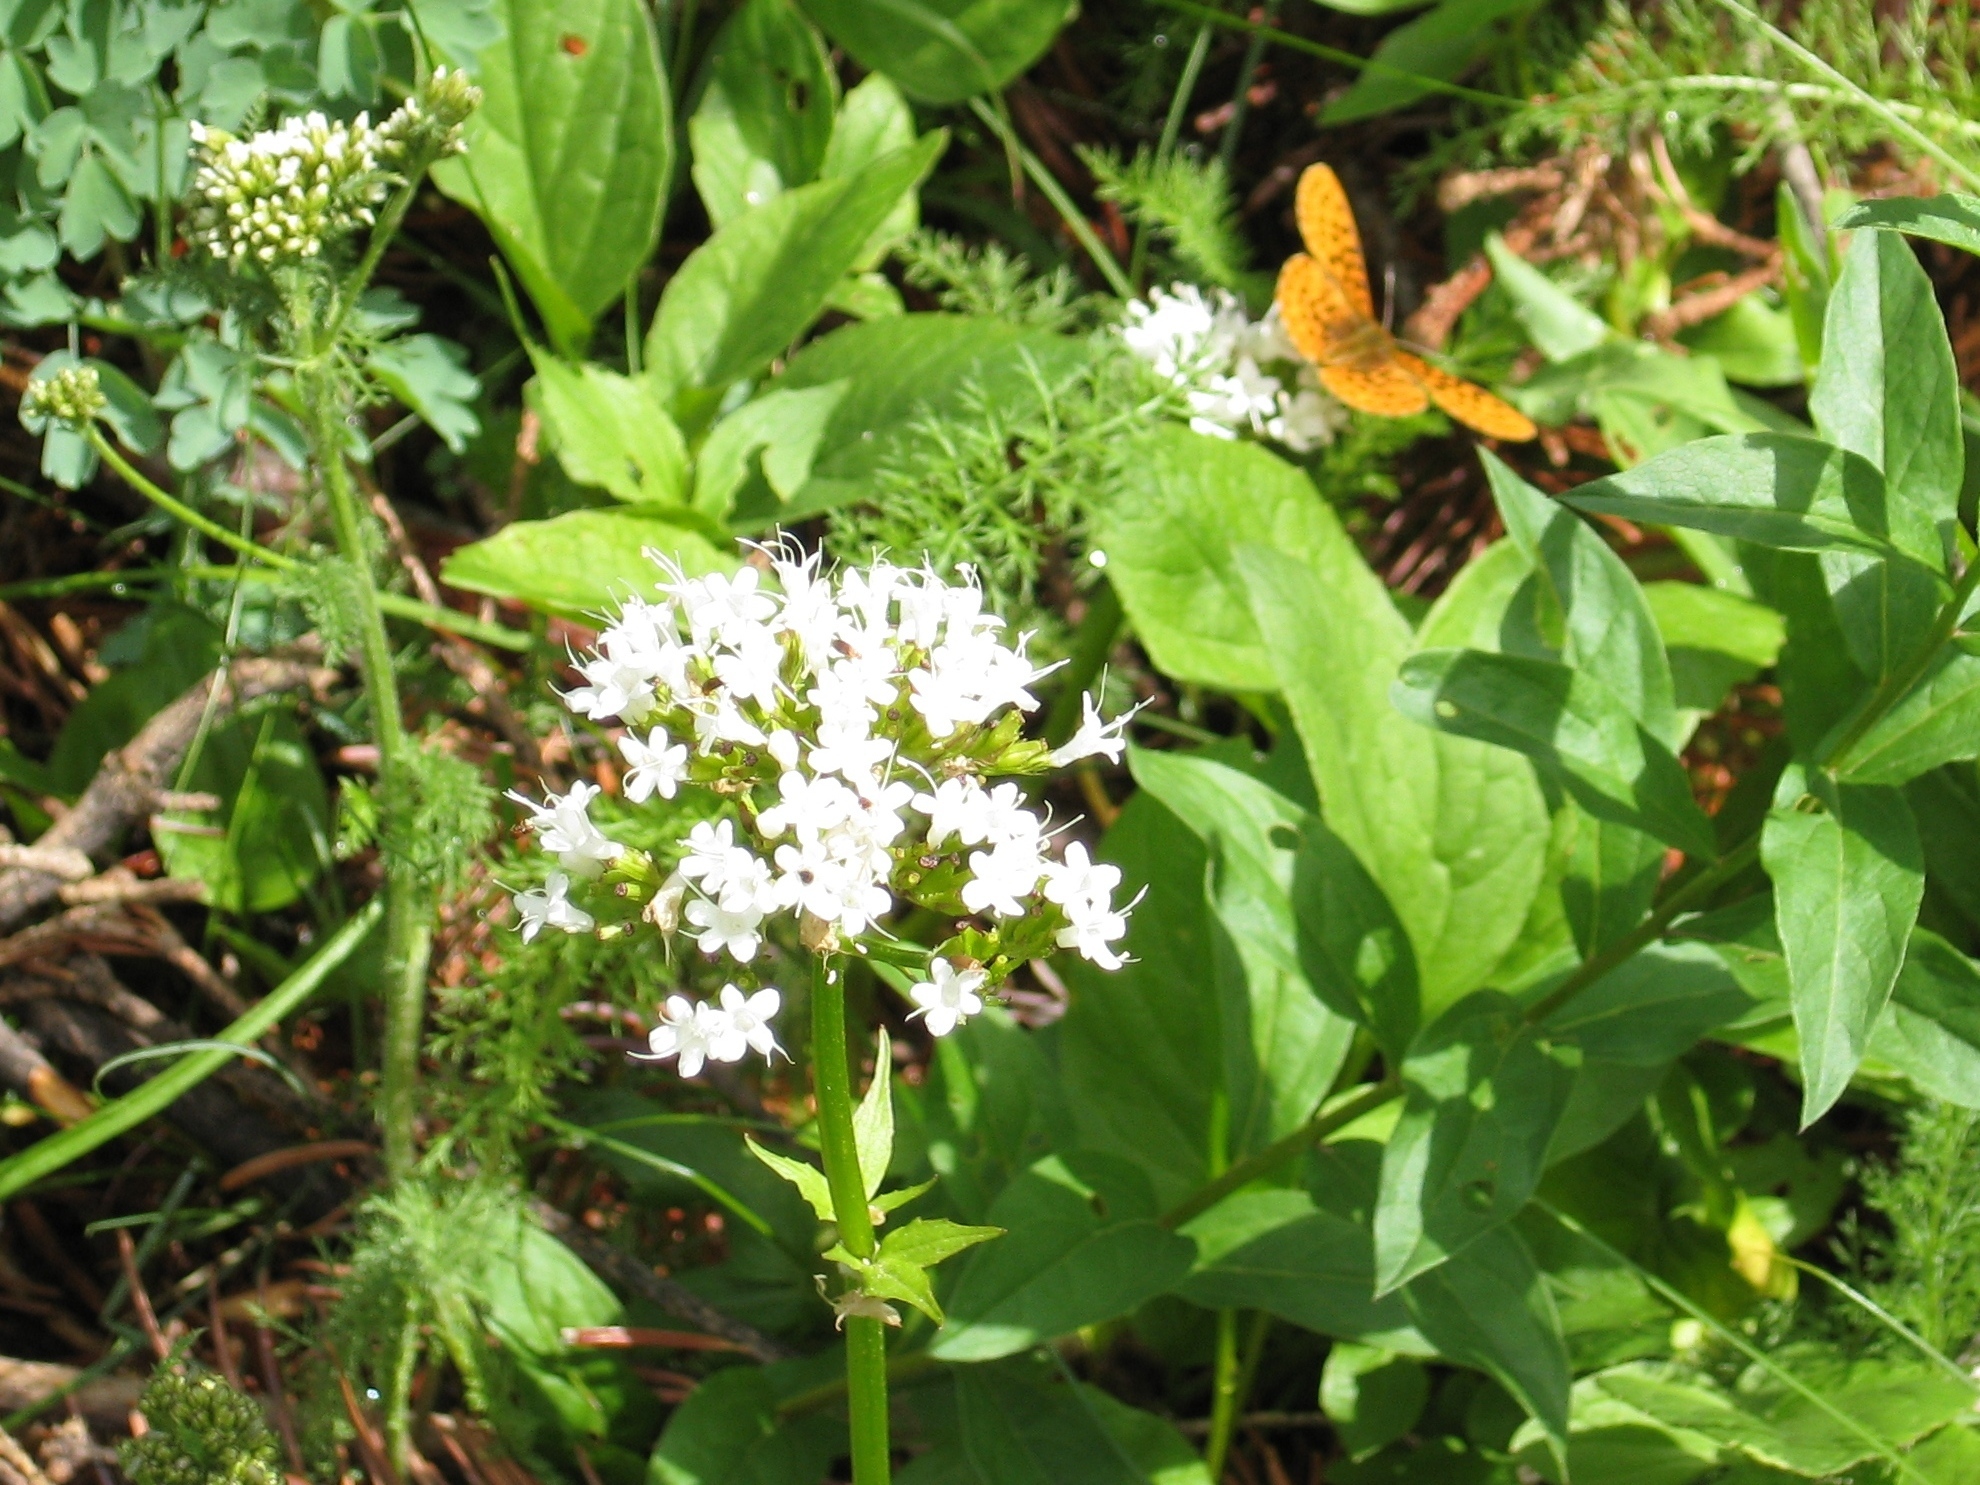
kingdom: Animalia
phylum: Arthropoda
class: Insecta
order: Lepidoptera
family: Nymphalidae
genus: Boloria
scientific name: Boloria epithore
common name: Pacific fritillary
